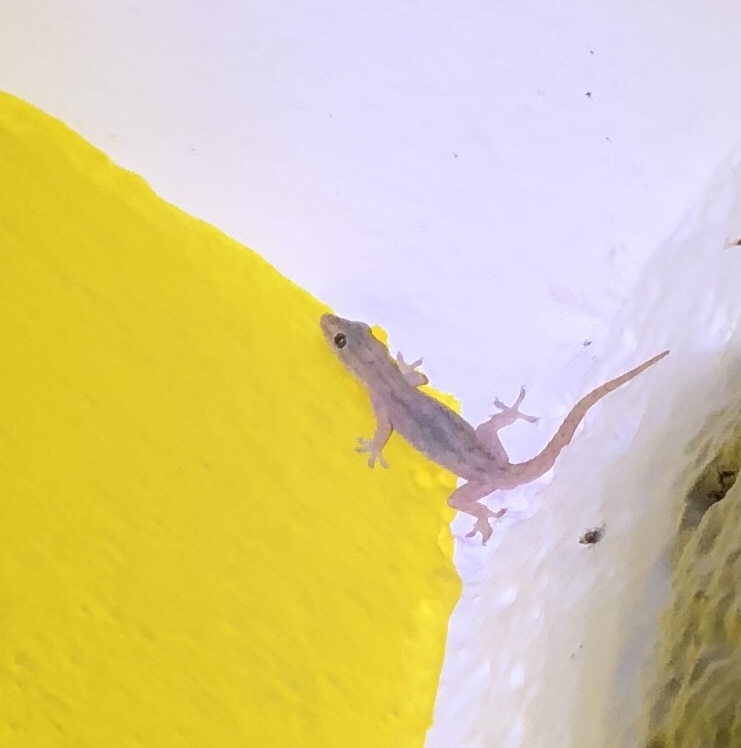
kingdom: Animalia
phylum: Chordata
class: Squamata
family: Gekkonidae
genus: Hemidactylus
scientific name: Hemidactylus frenatus
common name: Common house gecko
